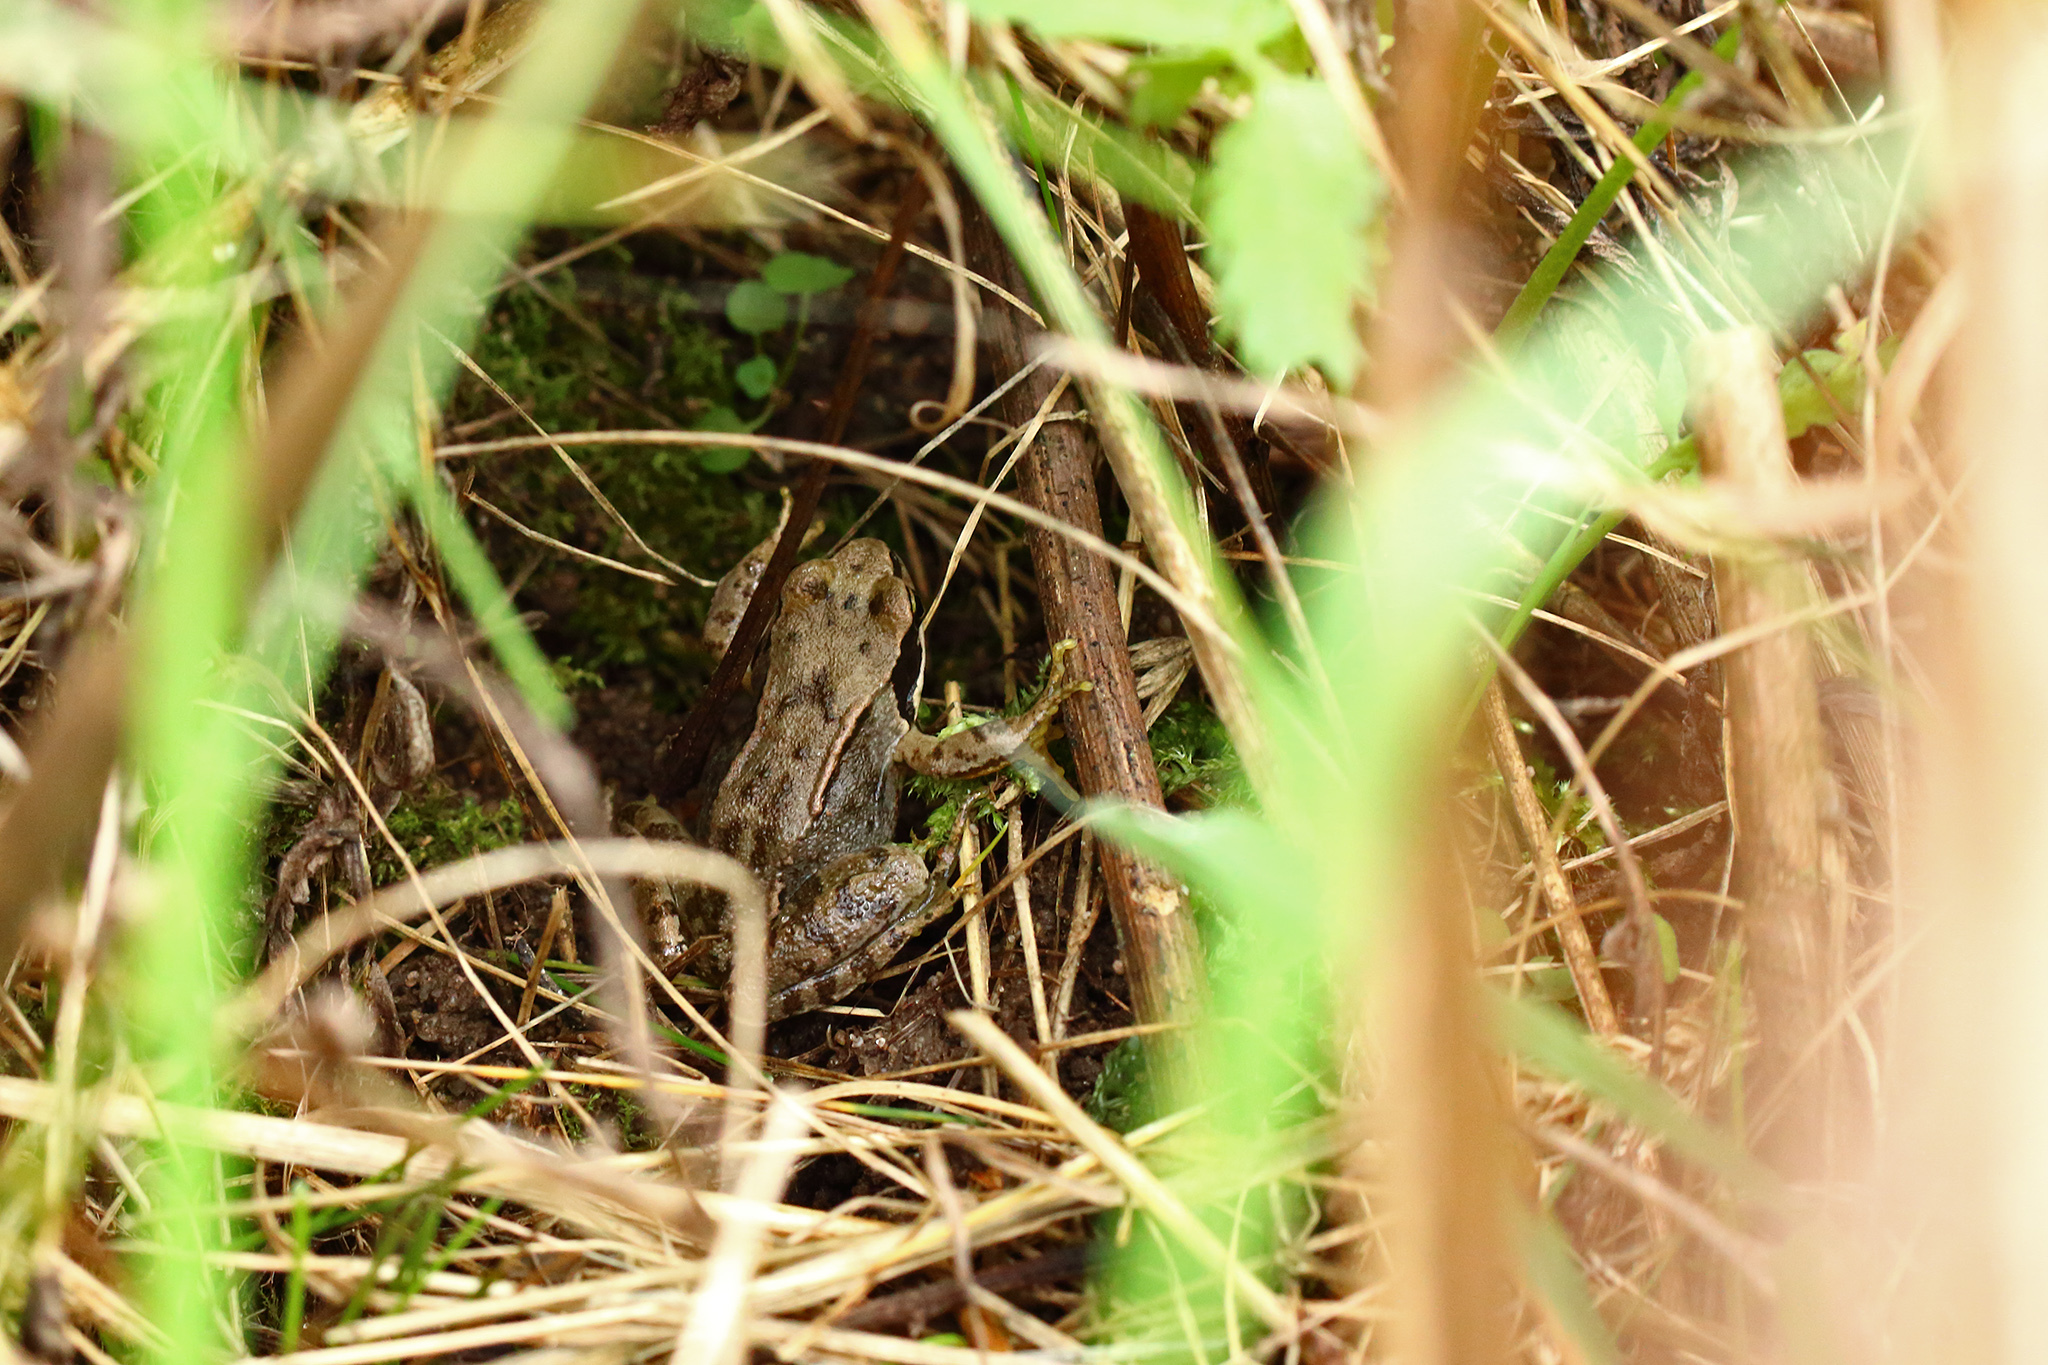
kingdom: Animalia
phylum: Chordata
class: Amphibia
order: Anura
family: Ranidae
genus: Rana
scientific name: Rana temporaria
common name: Common frog
